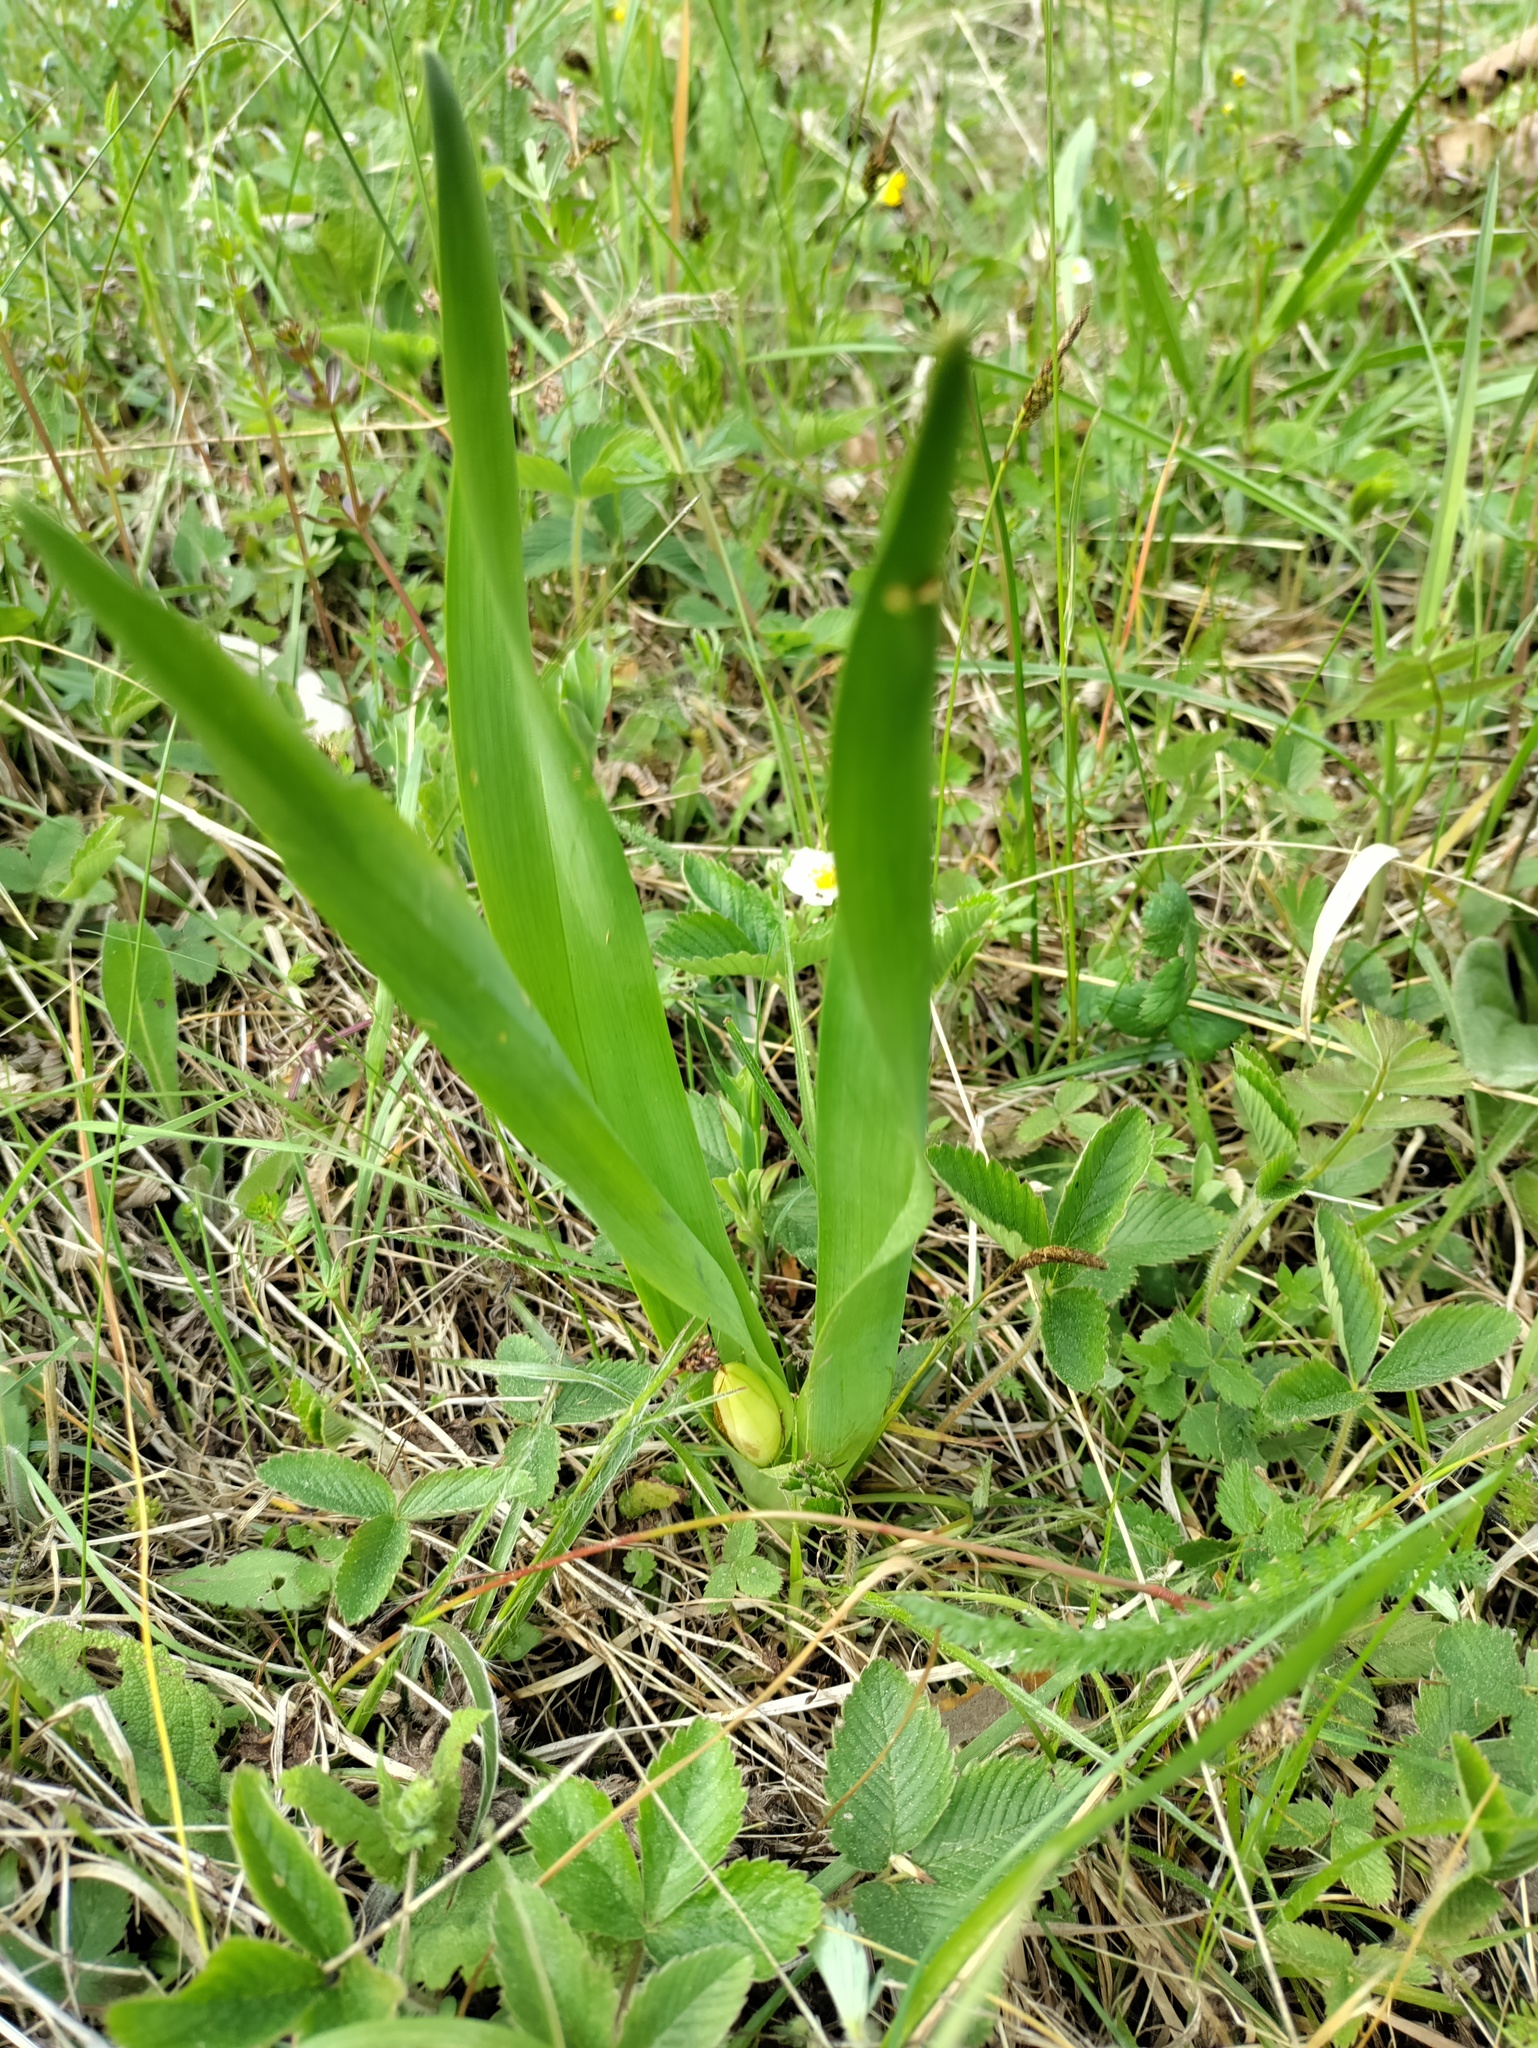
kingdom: Plantae
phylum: Tracheophyta
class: Liliopsida
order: Liliales
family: Colchicaceae
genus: Colchicum
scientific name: Colchicum autumnale
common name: Autumn crocus
